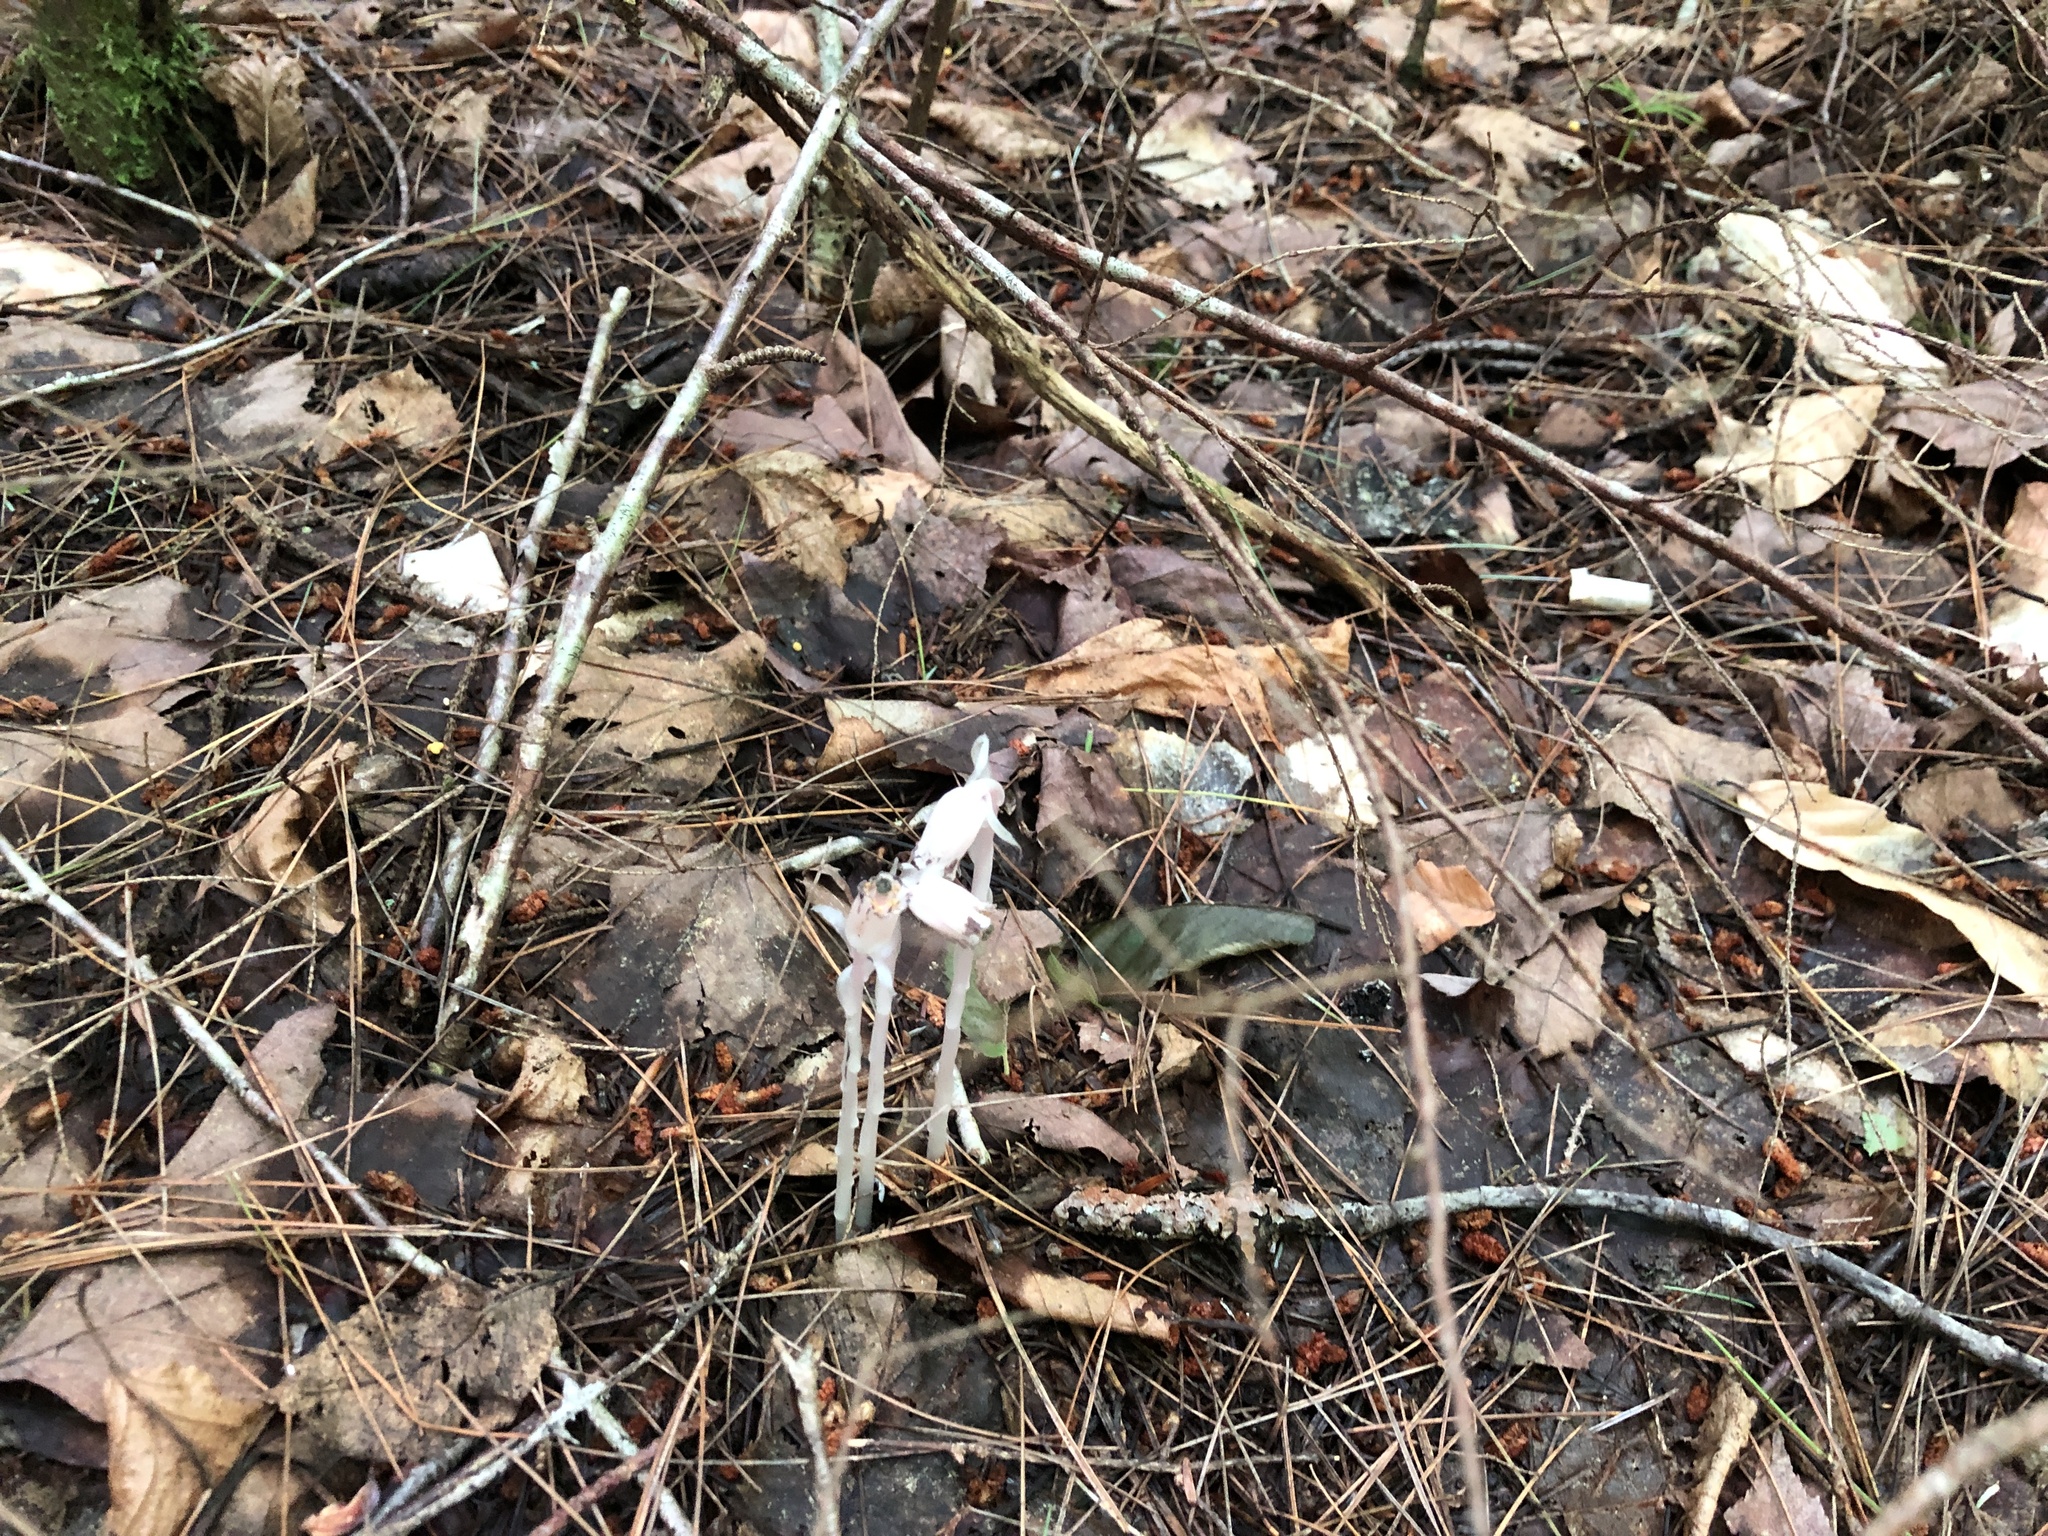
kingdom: Plantae
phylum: Tracheophyta
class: Magnoliopsida
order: Ericales
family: Ericaceae
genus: Monotropa
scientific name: Monotropa uniflora
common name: Convulsion root
